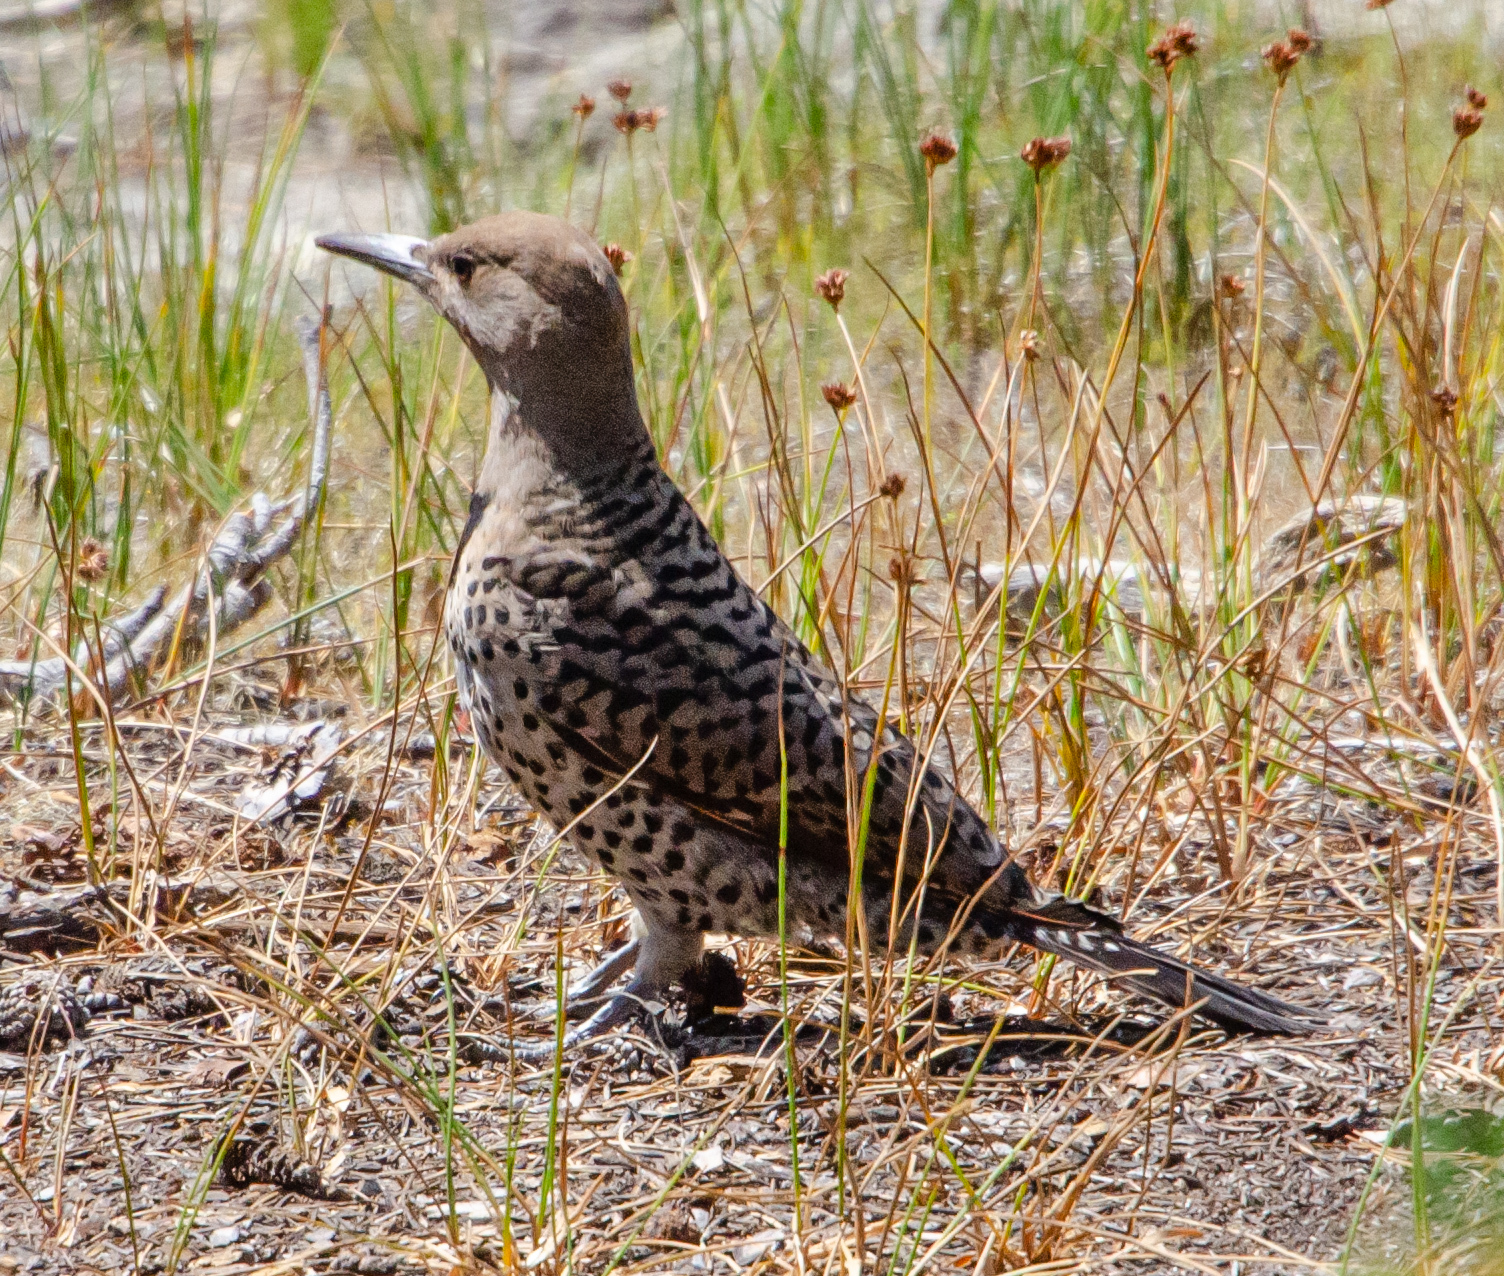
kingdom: Animalia
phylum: Chordata
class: Aves
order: Piciformes
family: Picidae
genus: Colaptes
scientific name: Colaptes auratus
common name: Northern flicker
